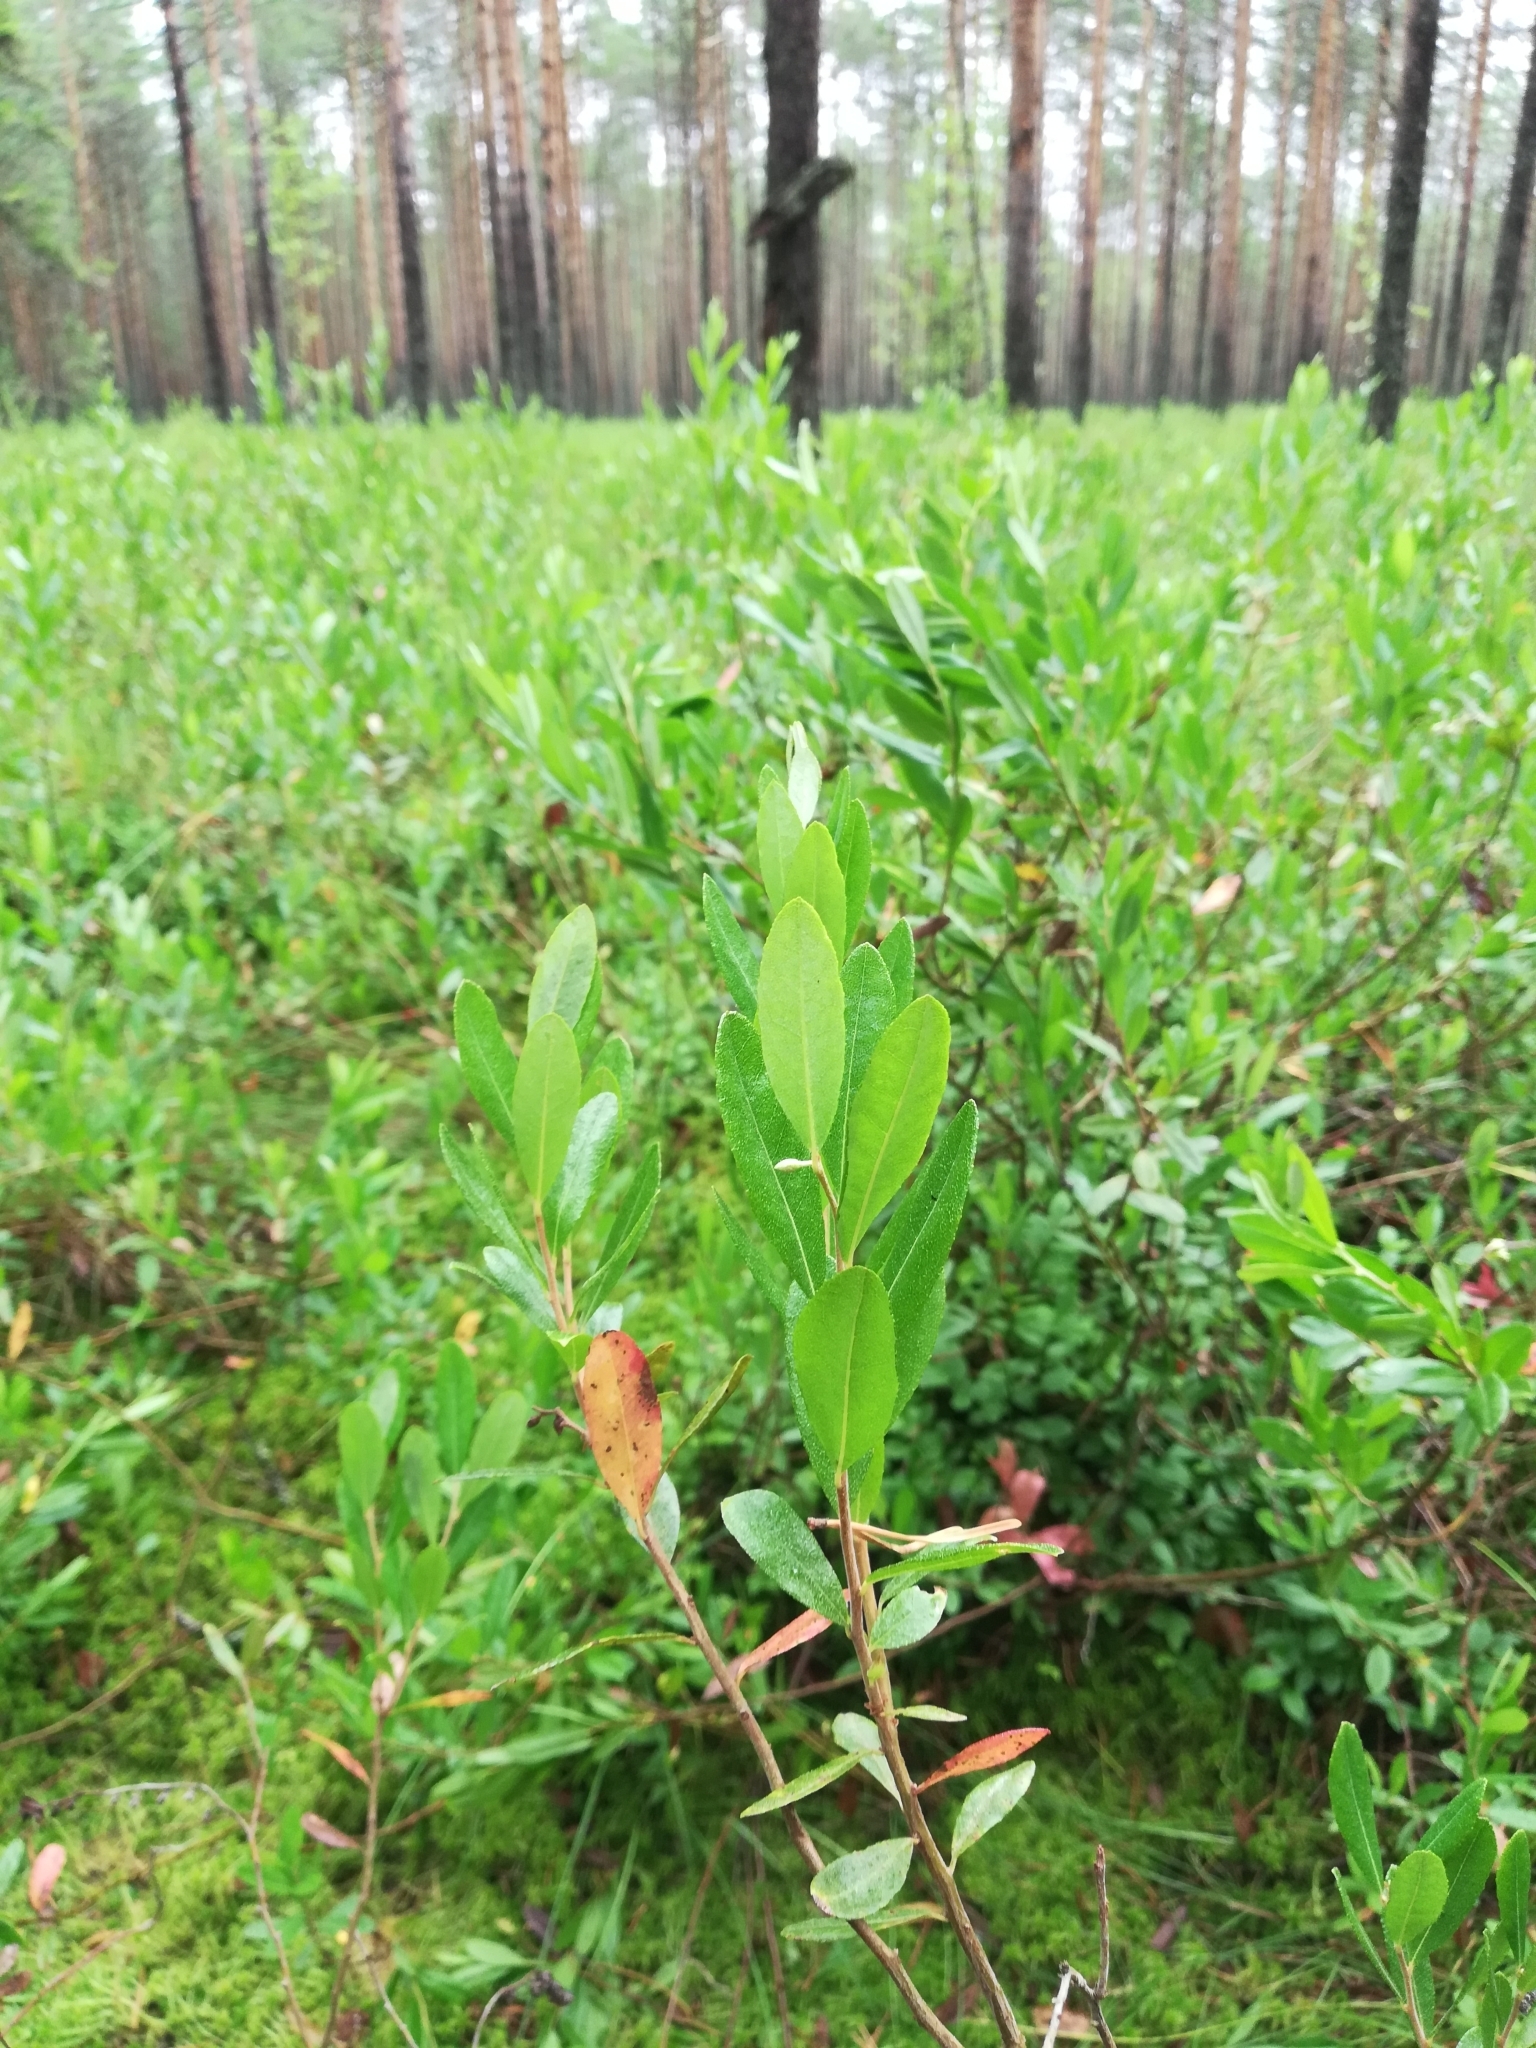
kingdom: Plantae
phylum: Tracheophyta
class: Magnoliopsida
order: Ericales
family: Ericaceae
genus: Chamaedaphne
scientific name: Chamaedaphne calyculata
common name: Leatherleaf
